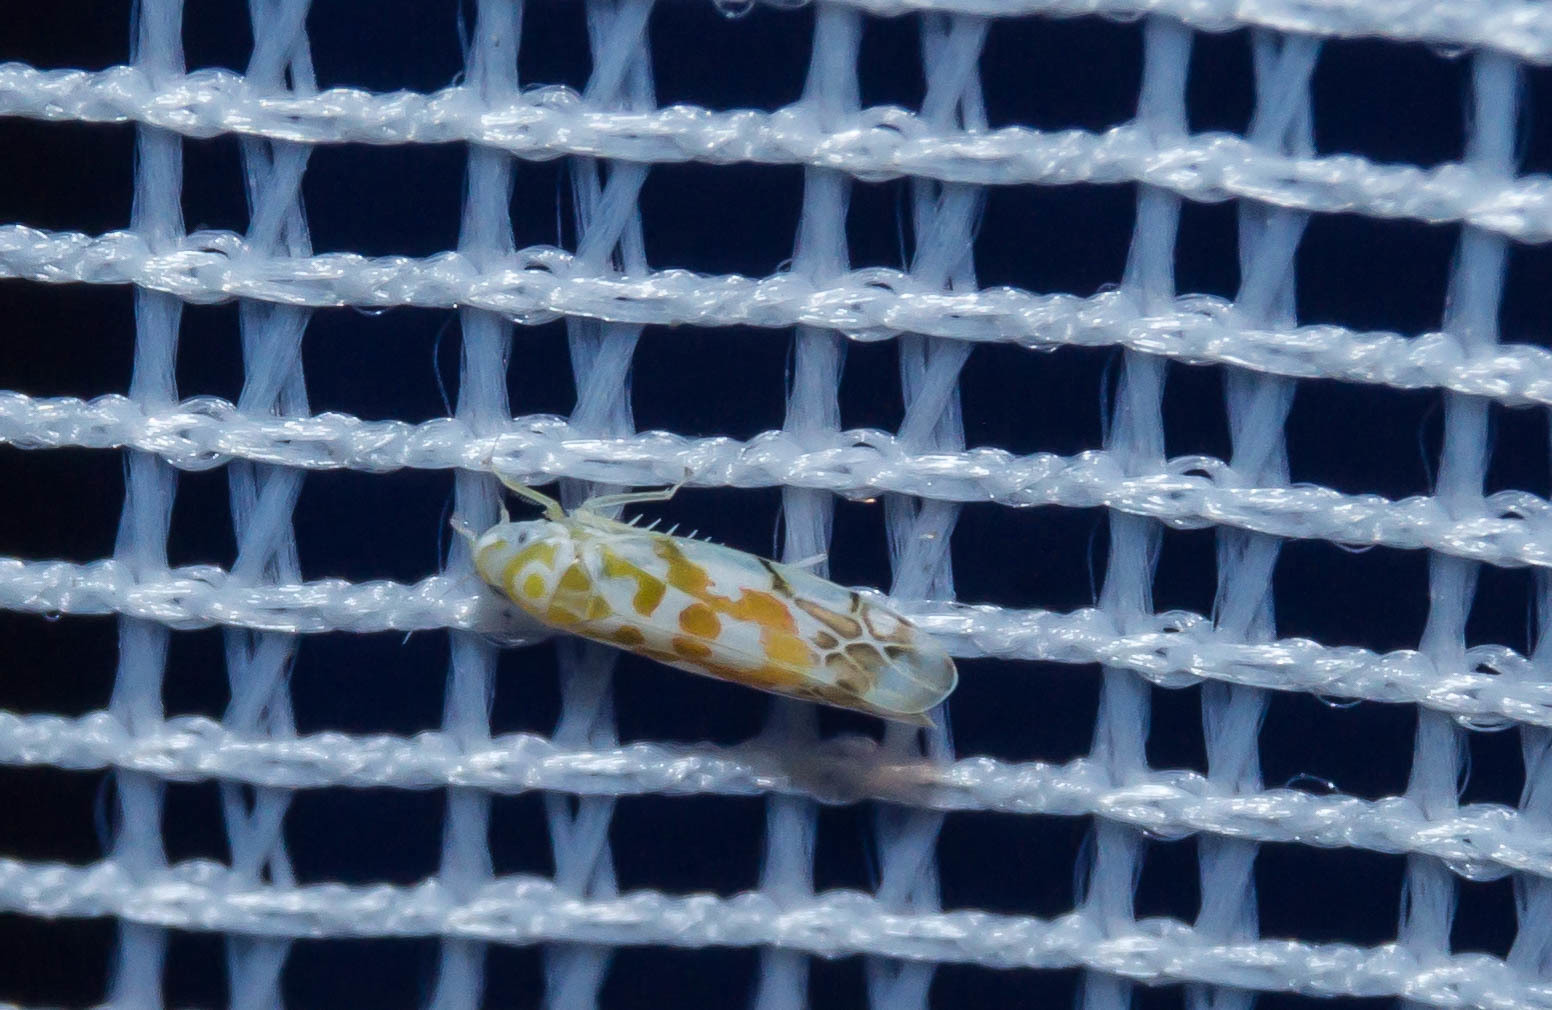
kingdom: Animalia
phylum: Arthropoda
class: Insecta
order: Hemiptera
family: Cicadellidae
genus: Typhlocyba
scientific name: Typhlocyba quercus
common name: Leafhopper
